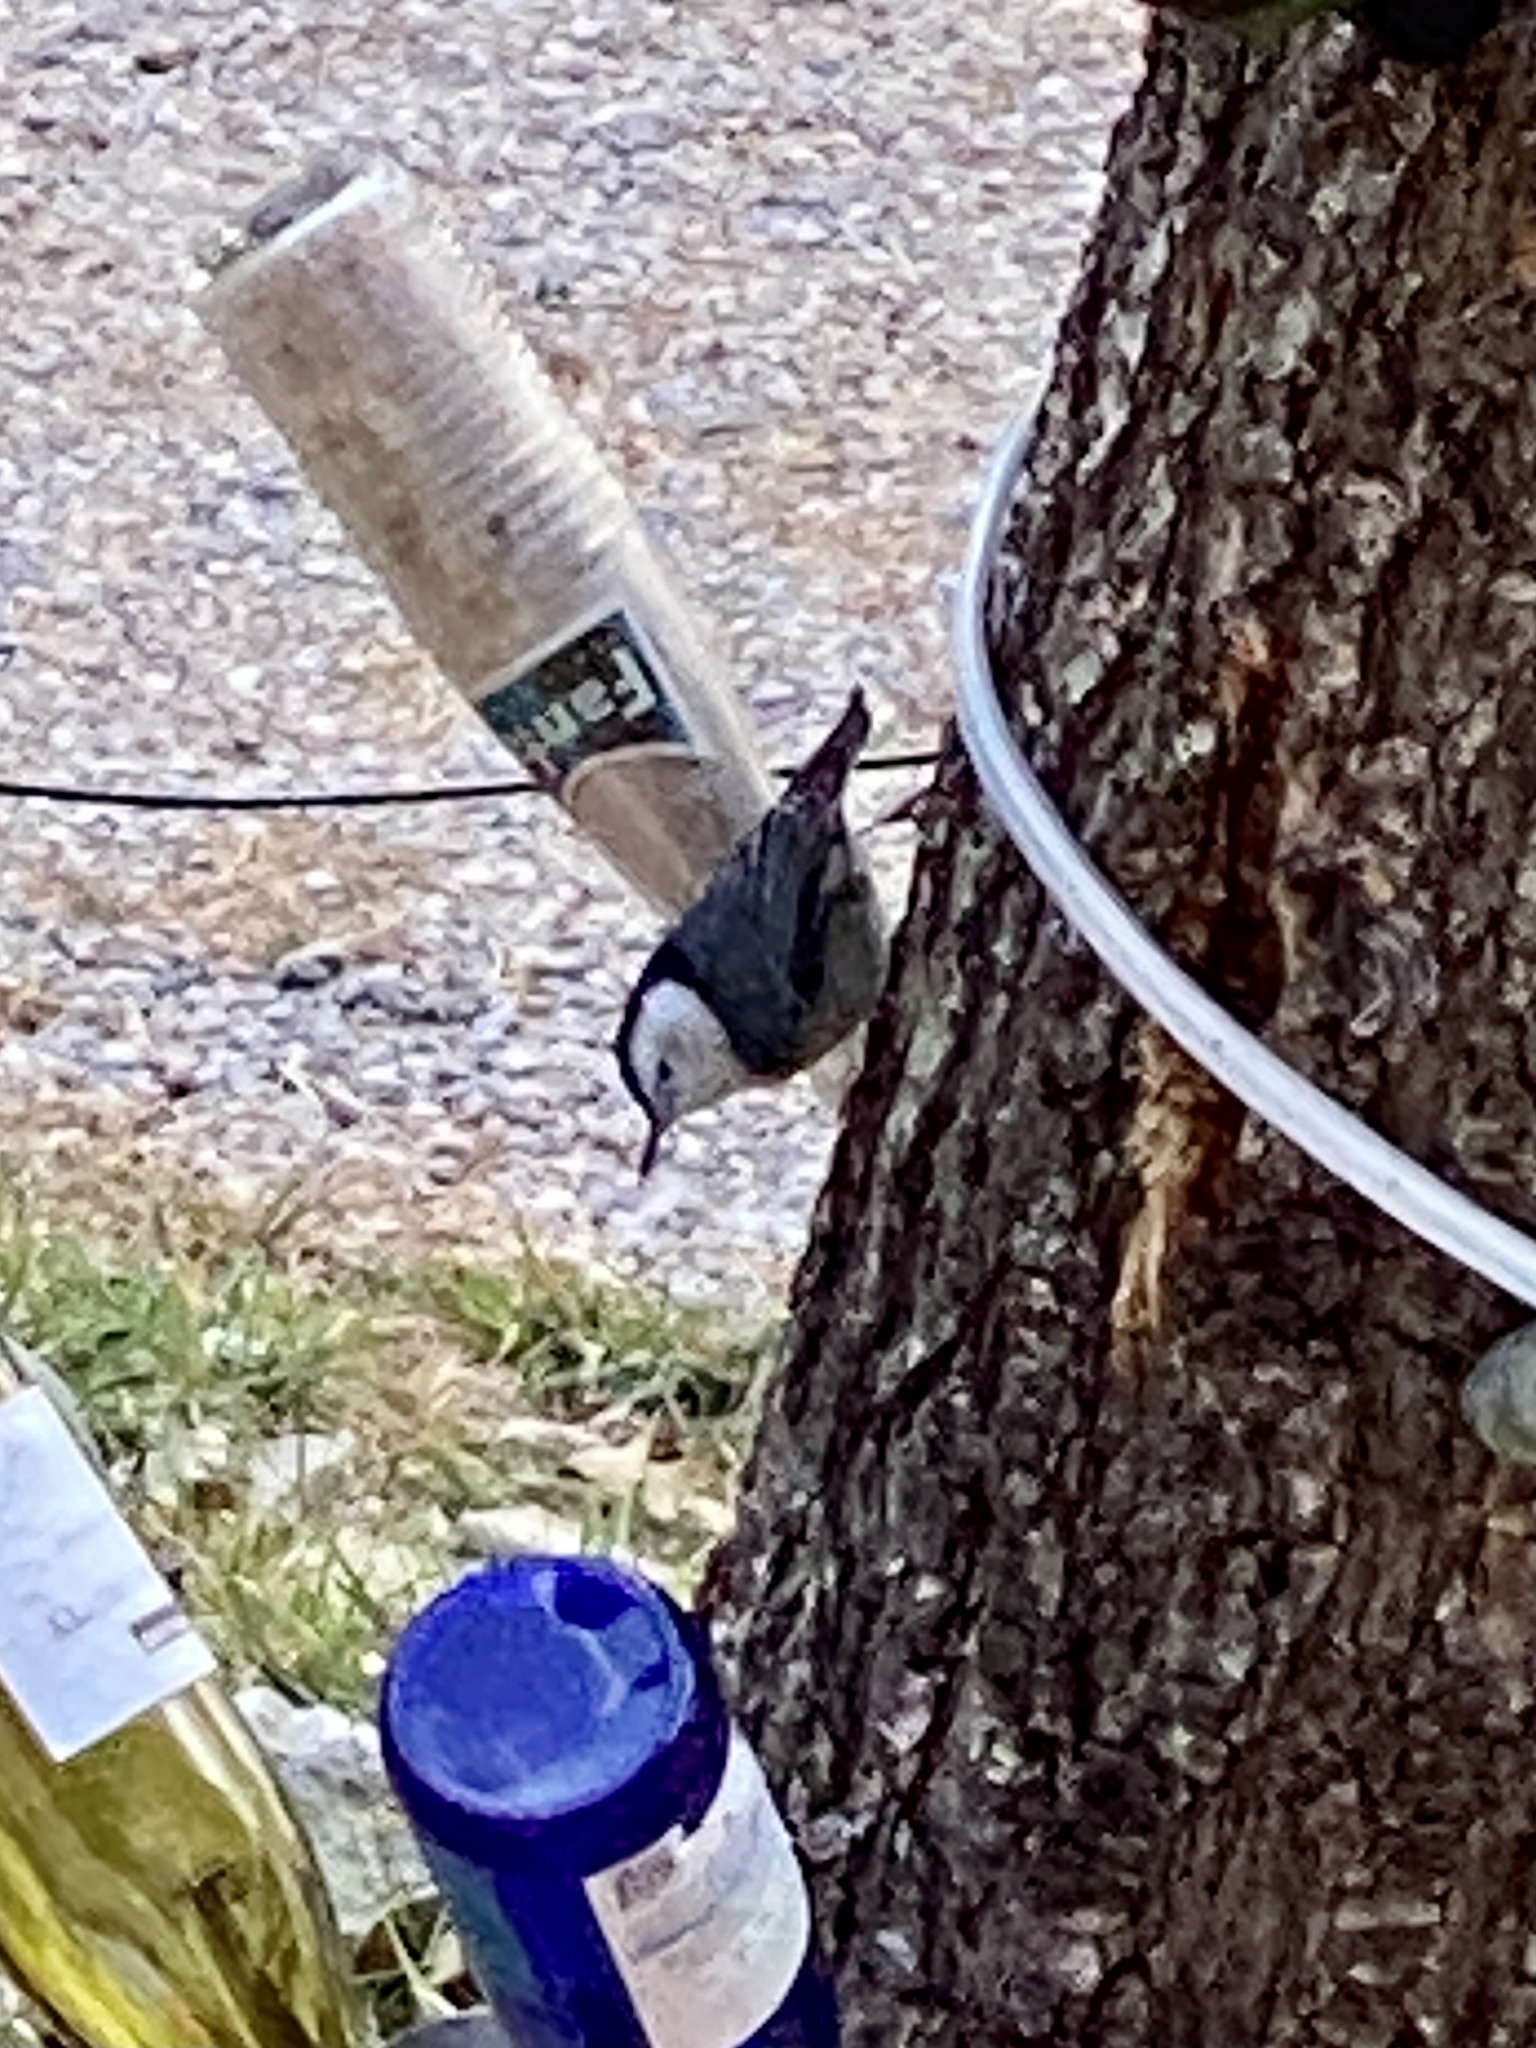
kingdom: Animalia
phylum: Chordata
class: Aves
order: Passeriformes
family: Sittidae
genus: Sitta
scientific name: Sitta carolinensis
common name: White-breasted nuthatch
